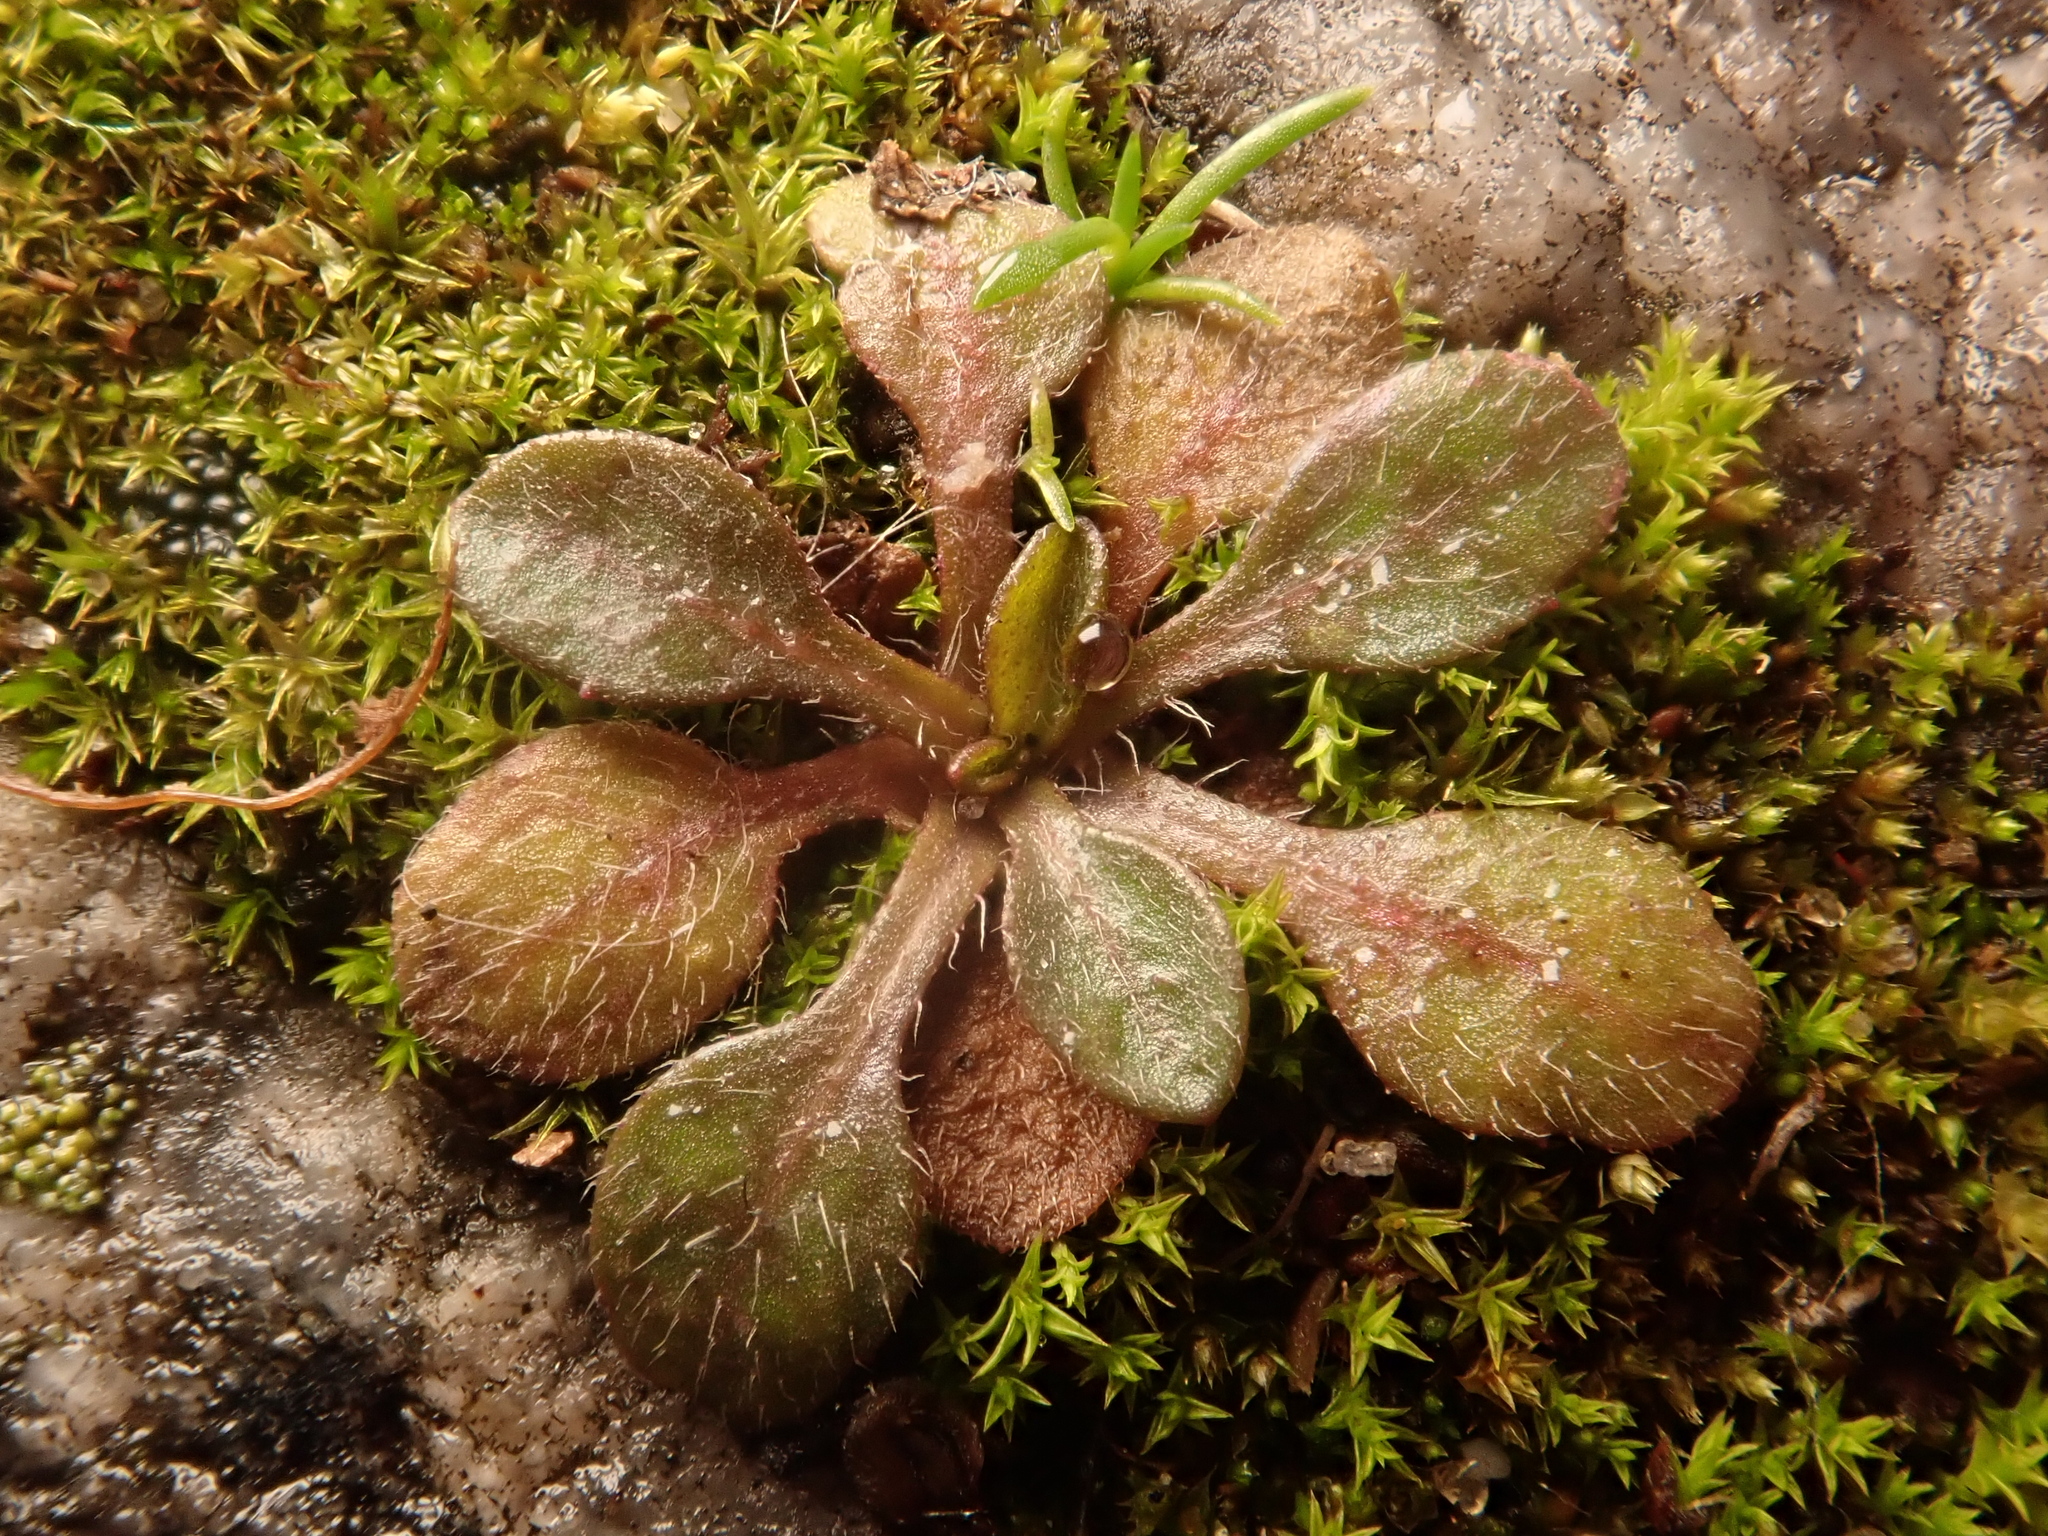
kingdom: Plantae
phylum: Tracheophyta
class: Magnoliopsida
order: Brassicales
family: Brassicaceae
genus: Arabidopsis
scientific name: Arabidopsis thaliana
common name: Thale cress
